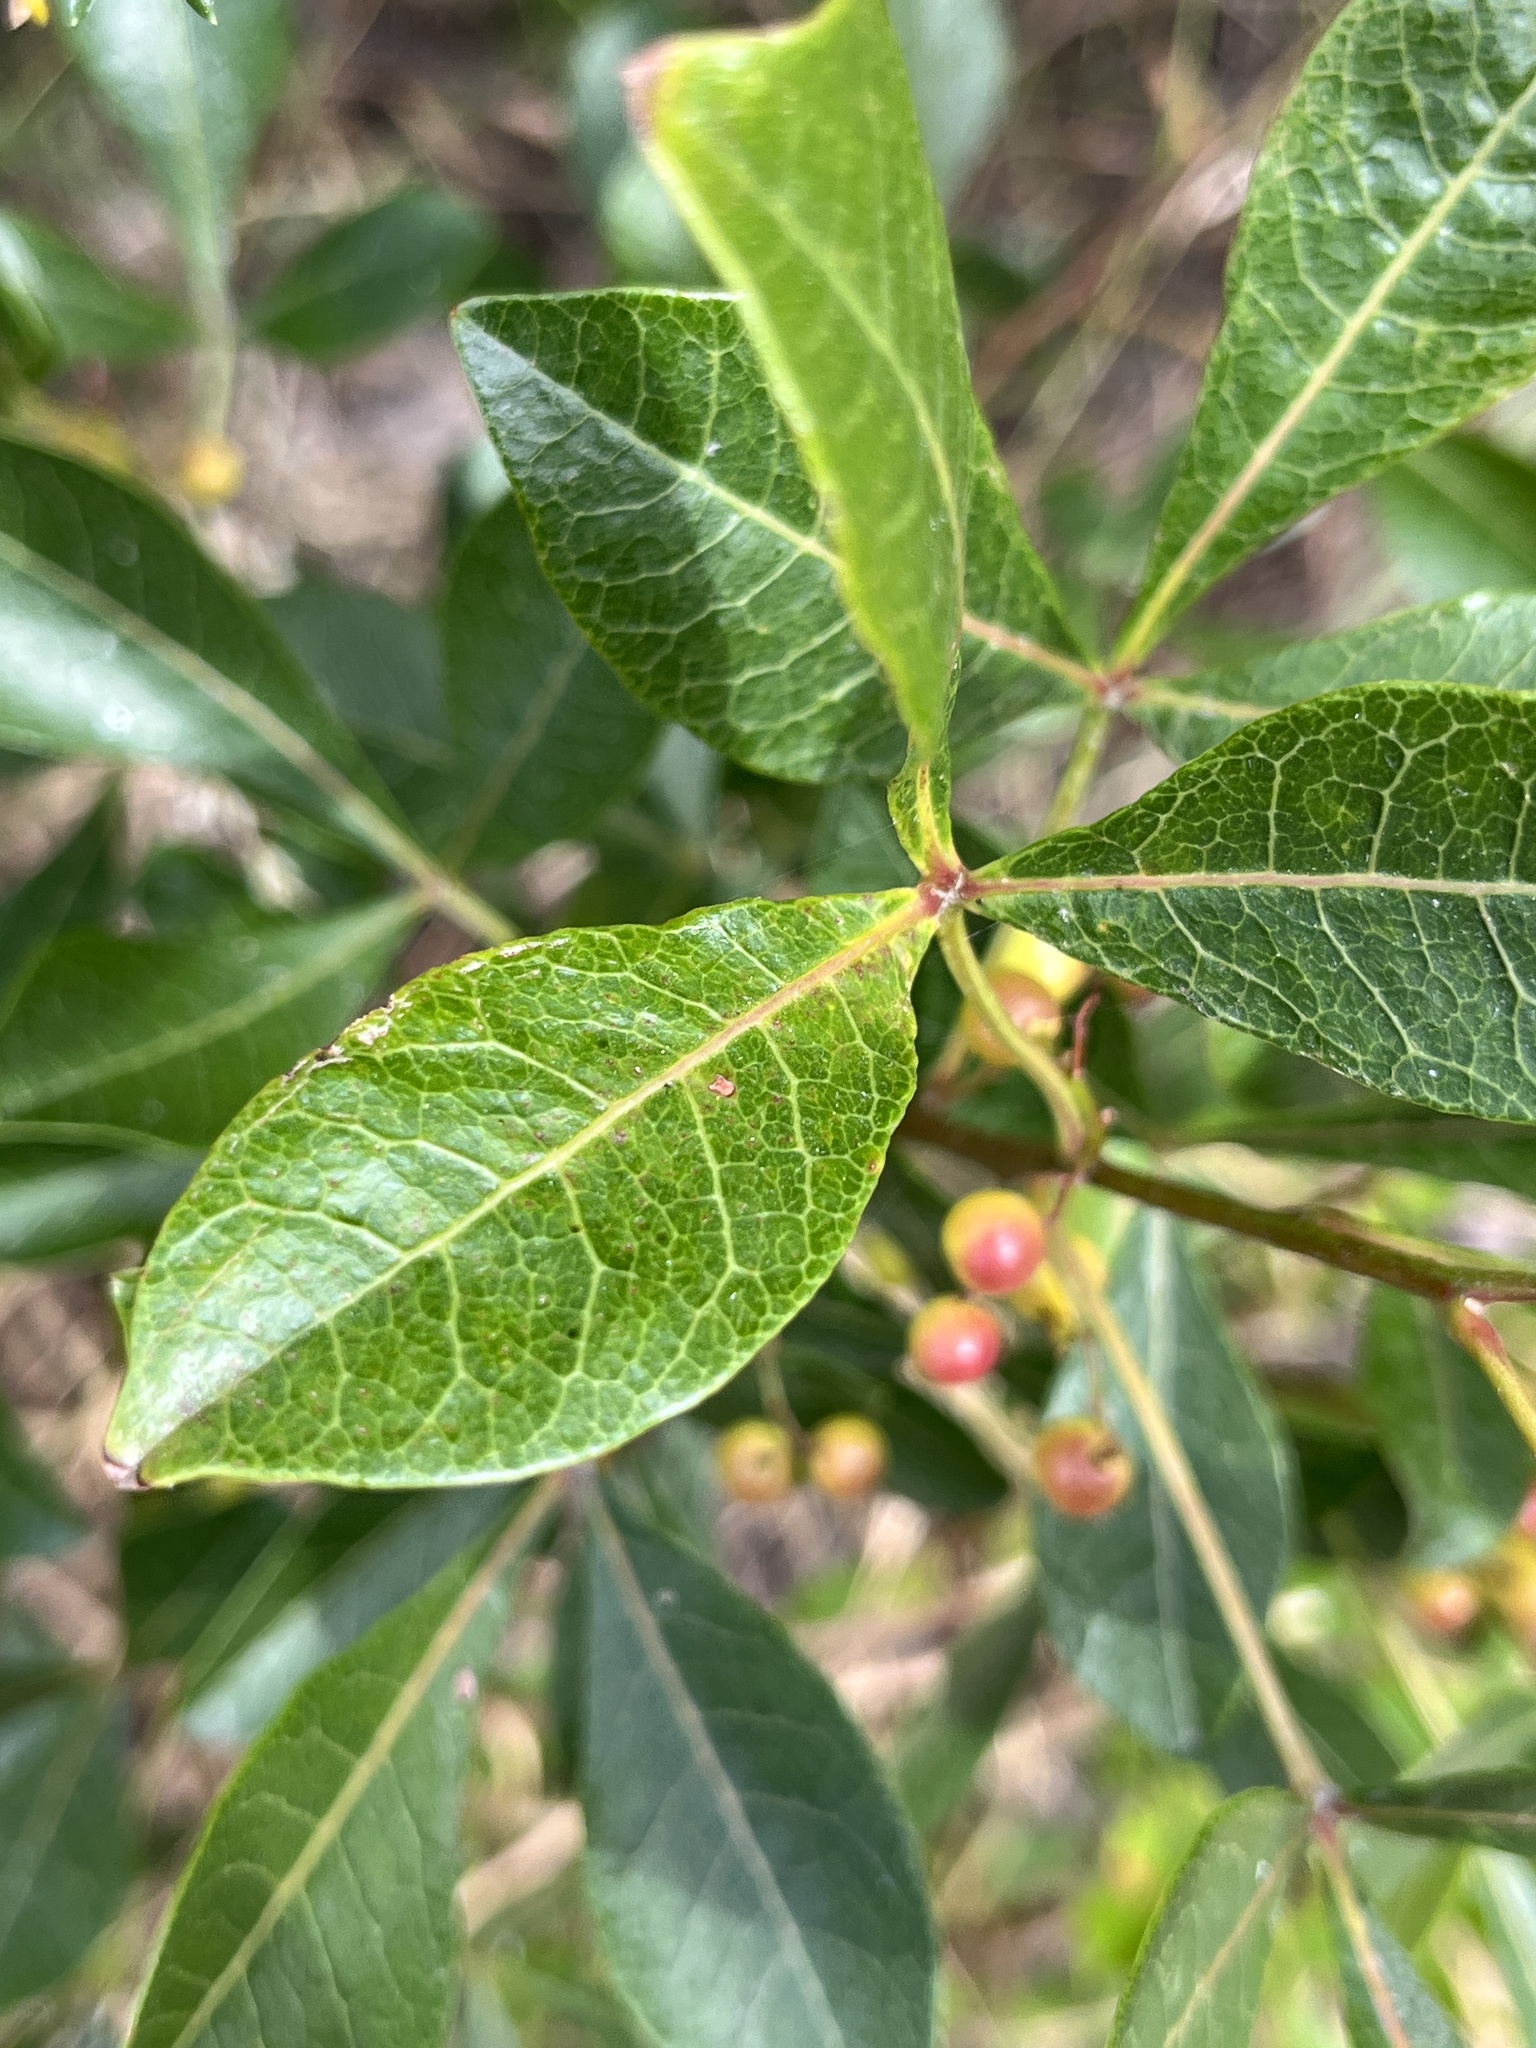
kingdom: Plantae
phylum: Tracheophyta
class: Magnoliopsida
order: Sapindales
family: Anacardiaceae
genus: Searsia
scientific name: Searsia laevigata
